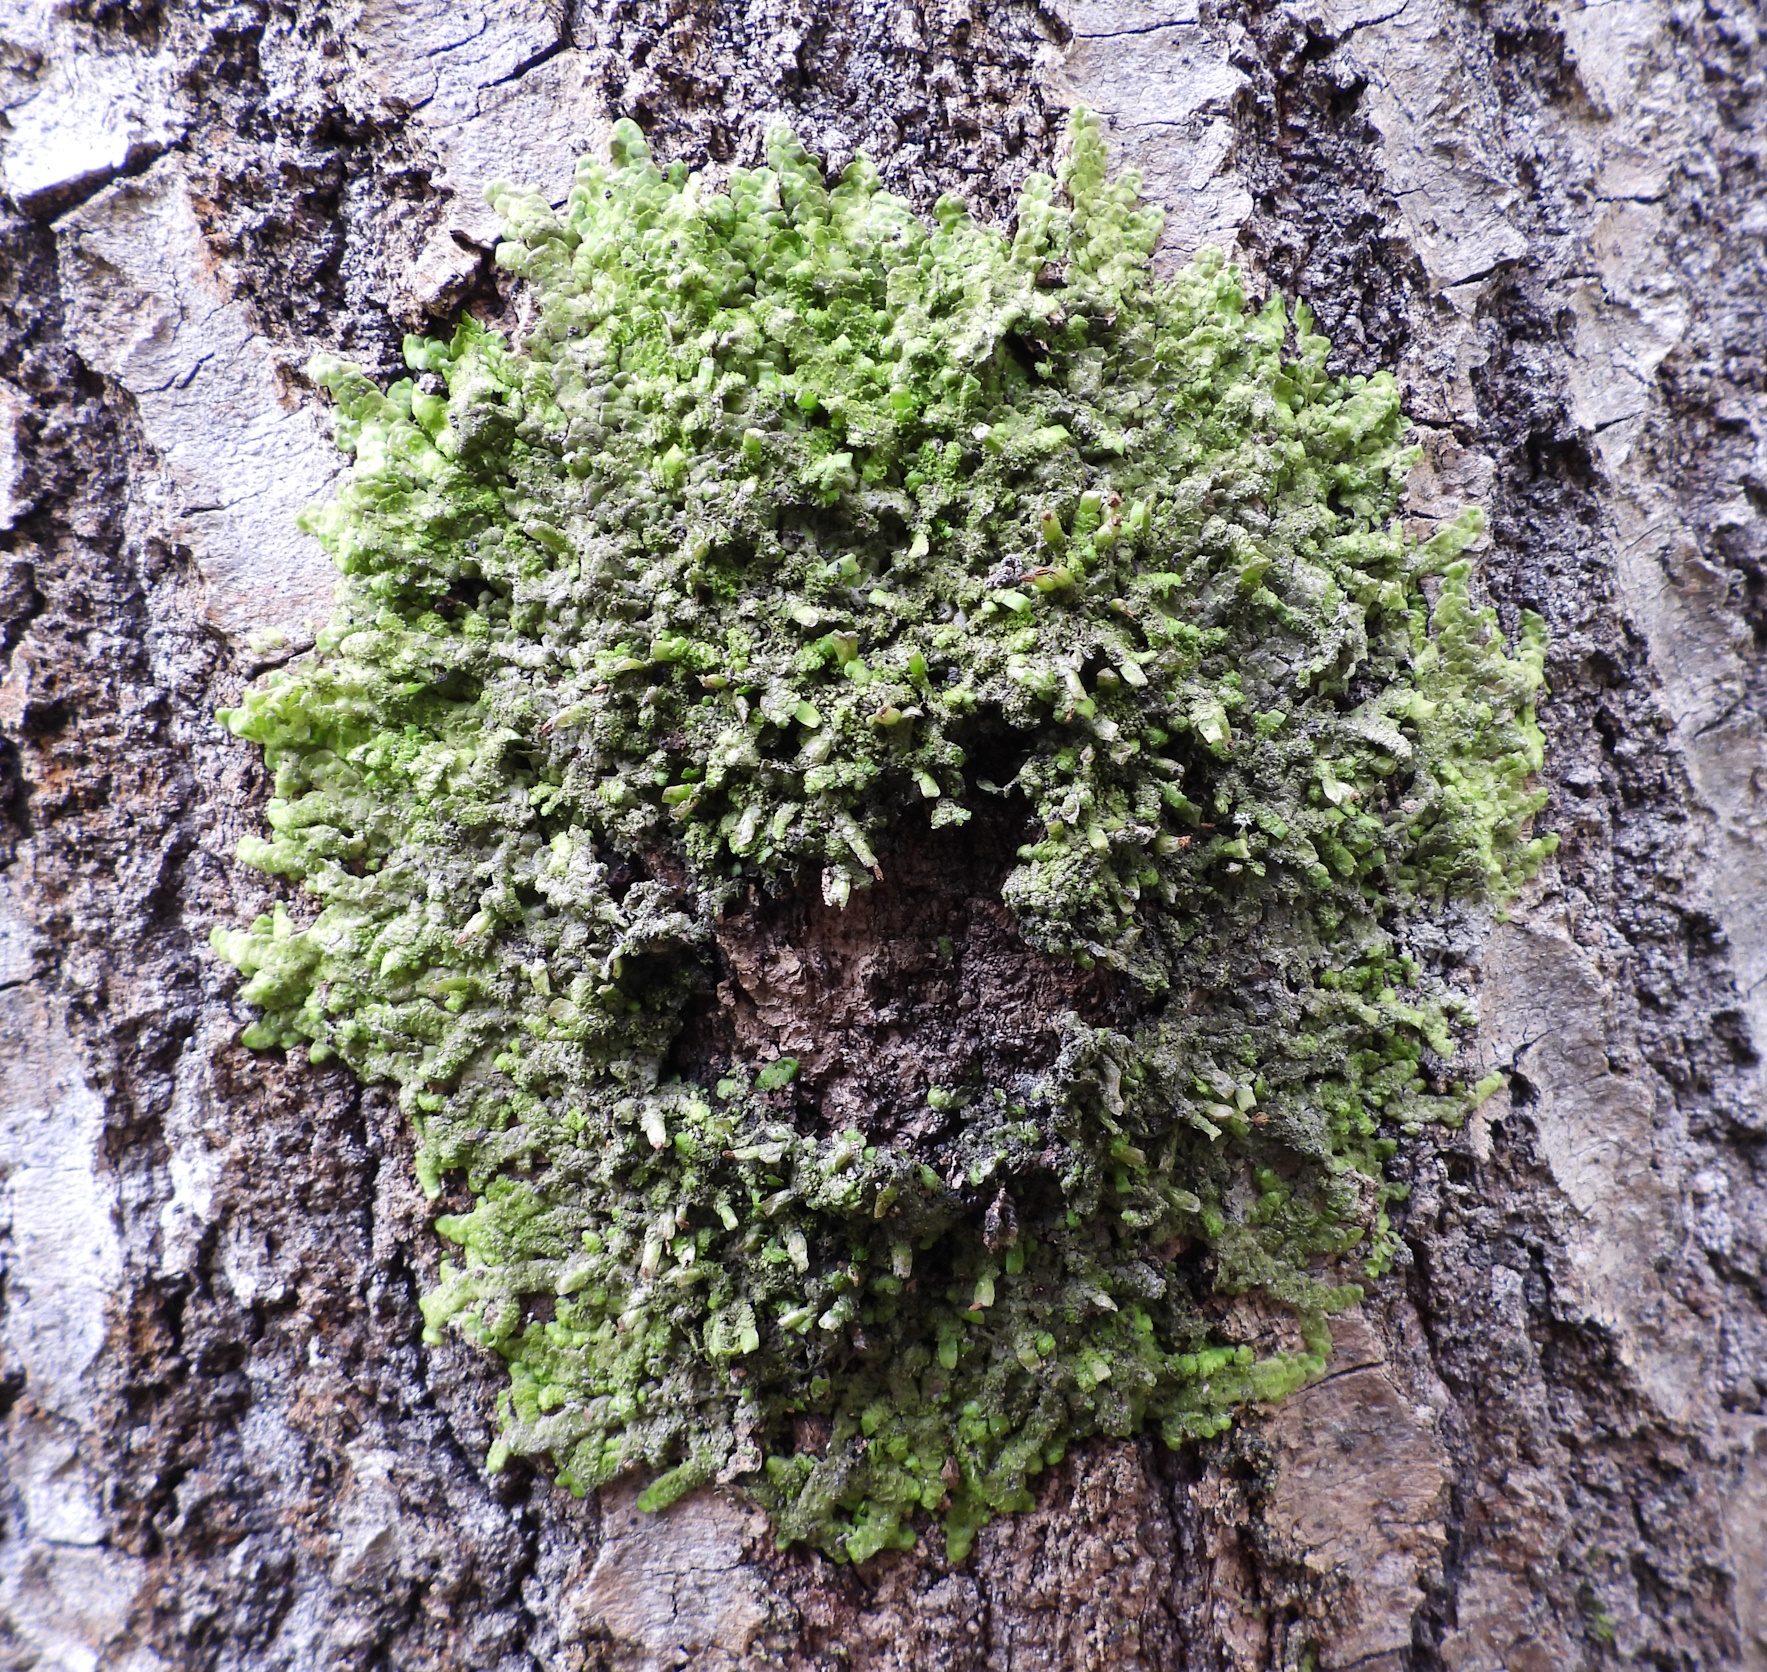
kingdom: Plantae
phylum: Marchantiophyta
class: Jungermanniopsida
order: Porellales
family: Radulaceae
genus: Radula
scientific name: Radula complanata
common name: Flat-leaved scalewort
